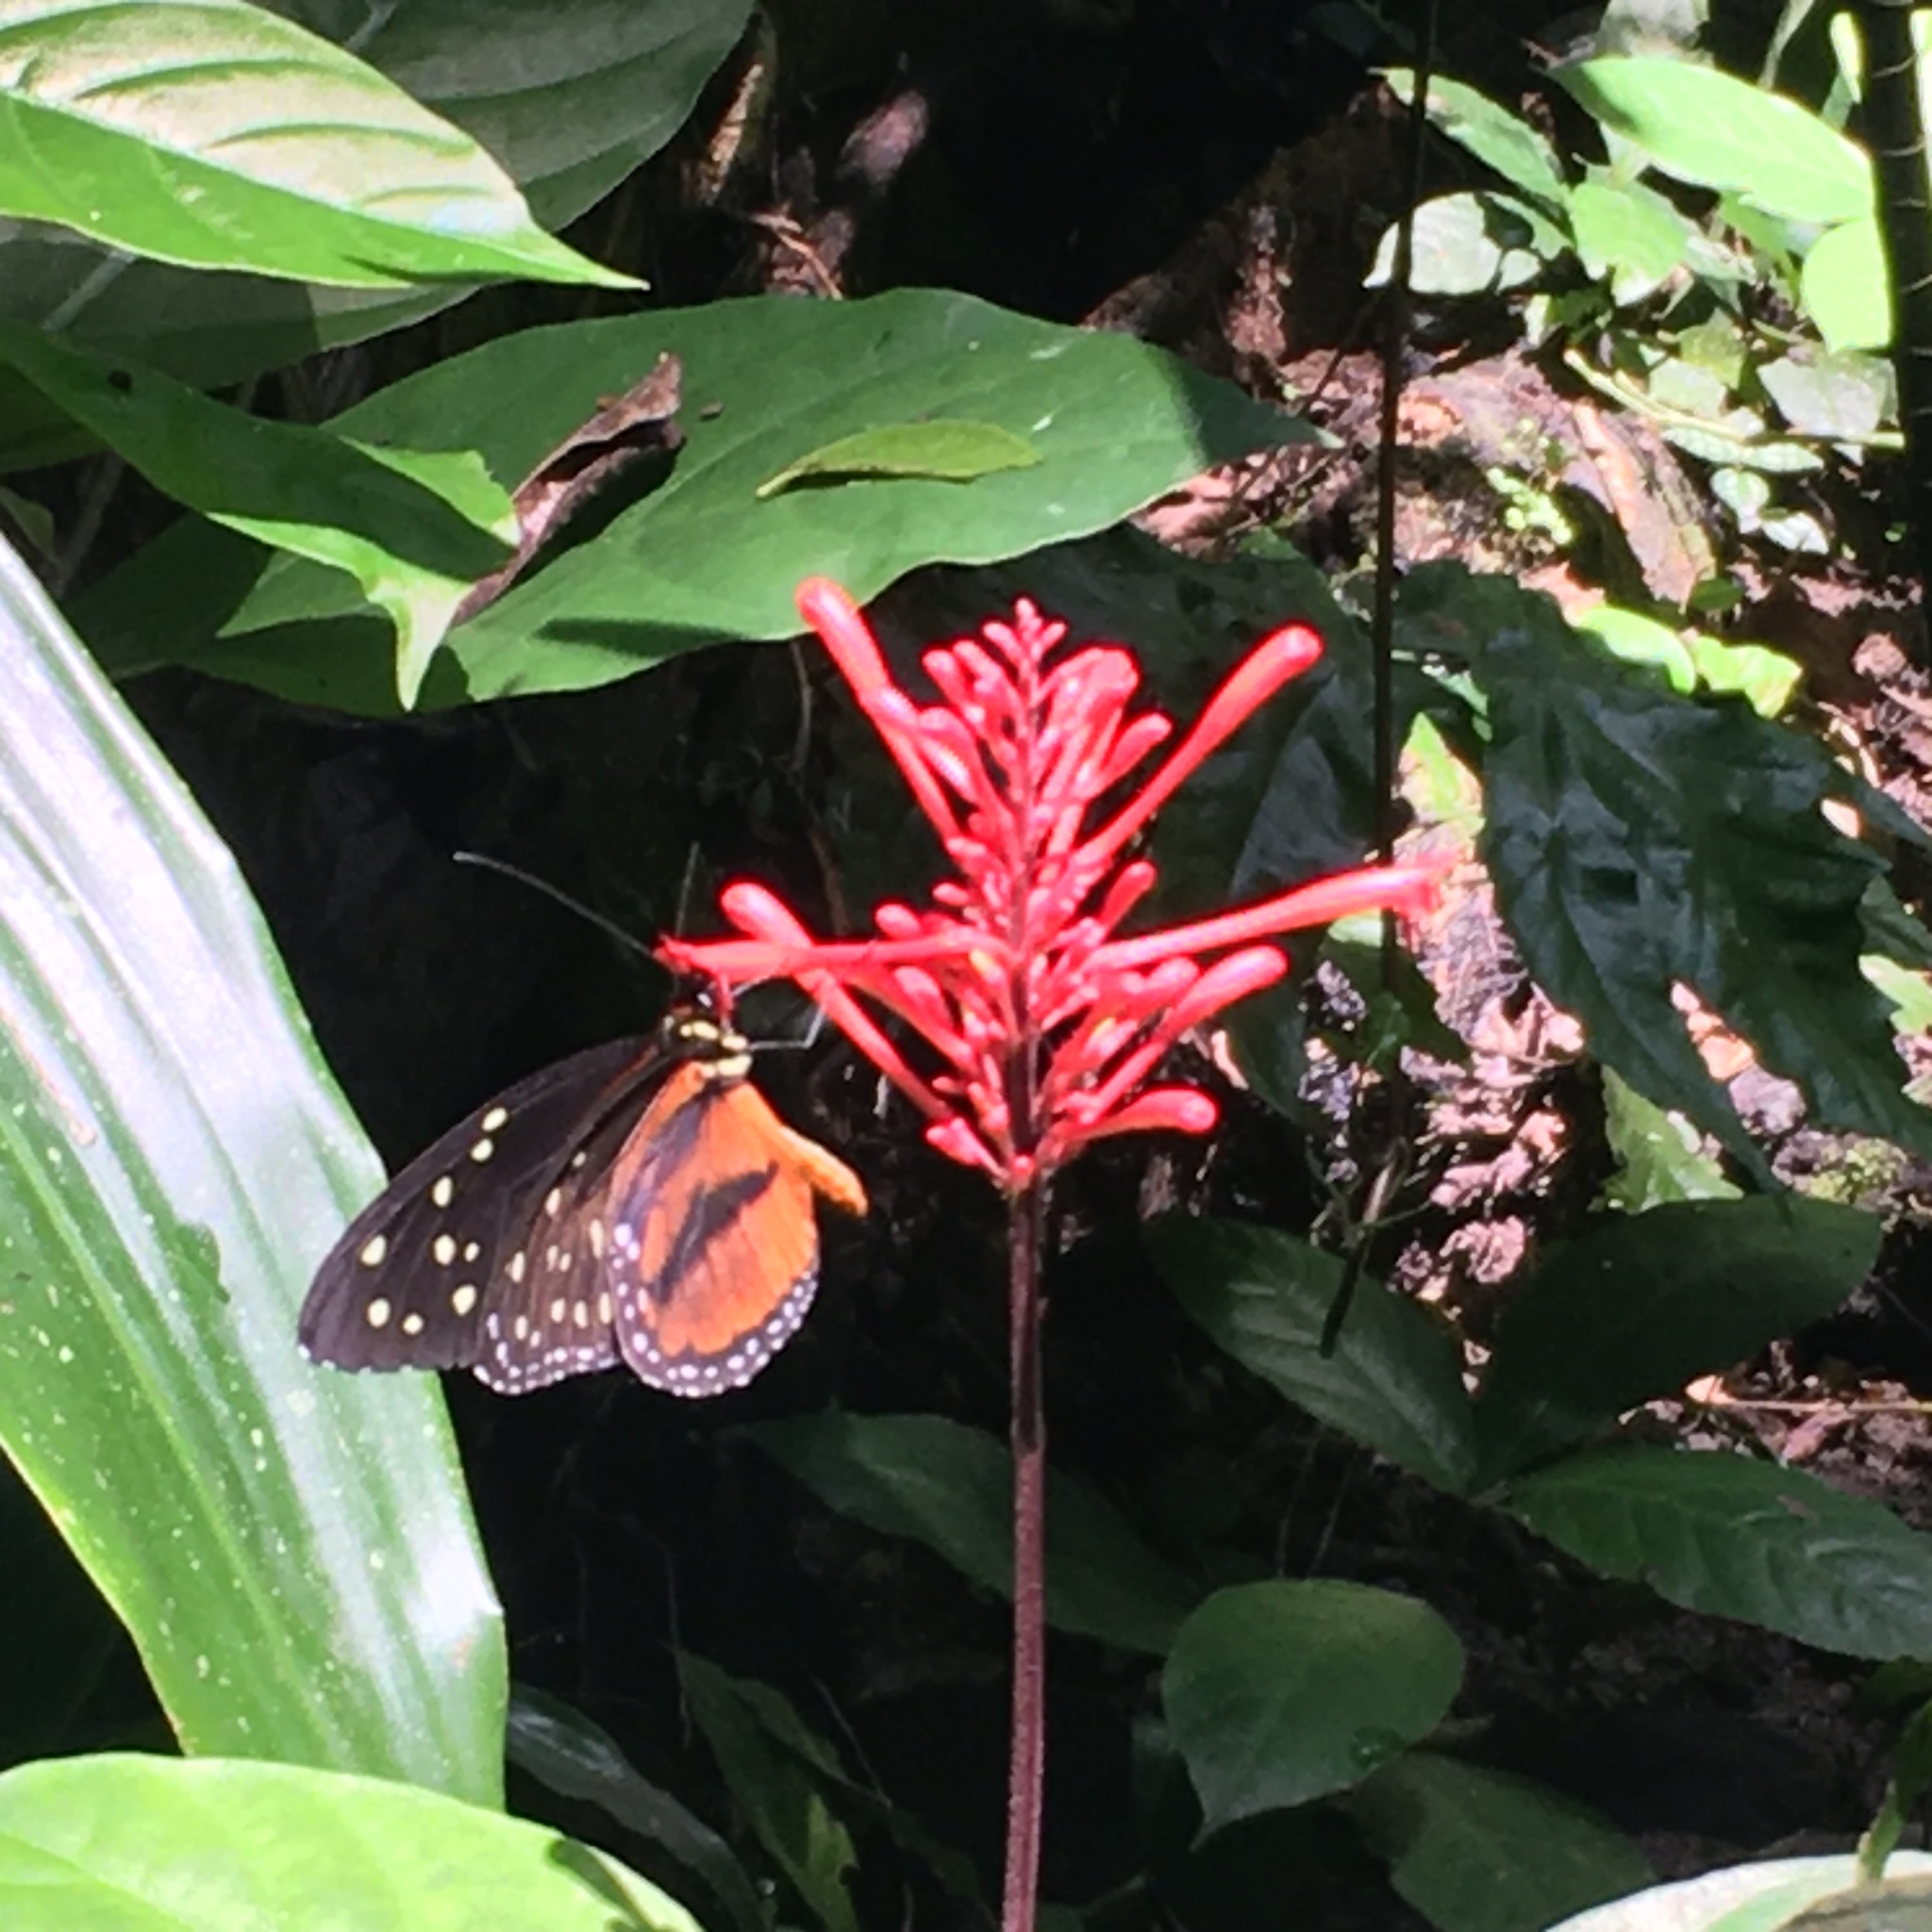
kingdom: Animalia
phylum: Arthropoda
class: Insecta
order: Lepidoptera
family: Nymphalidae
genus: Tithorea
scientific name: Tithorea tarricina
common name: Cream-spotted tigerwing
